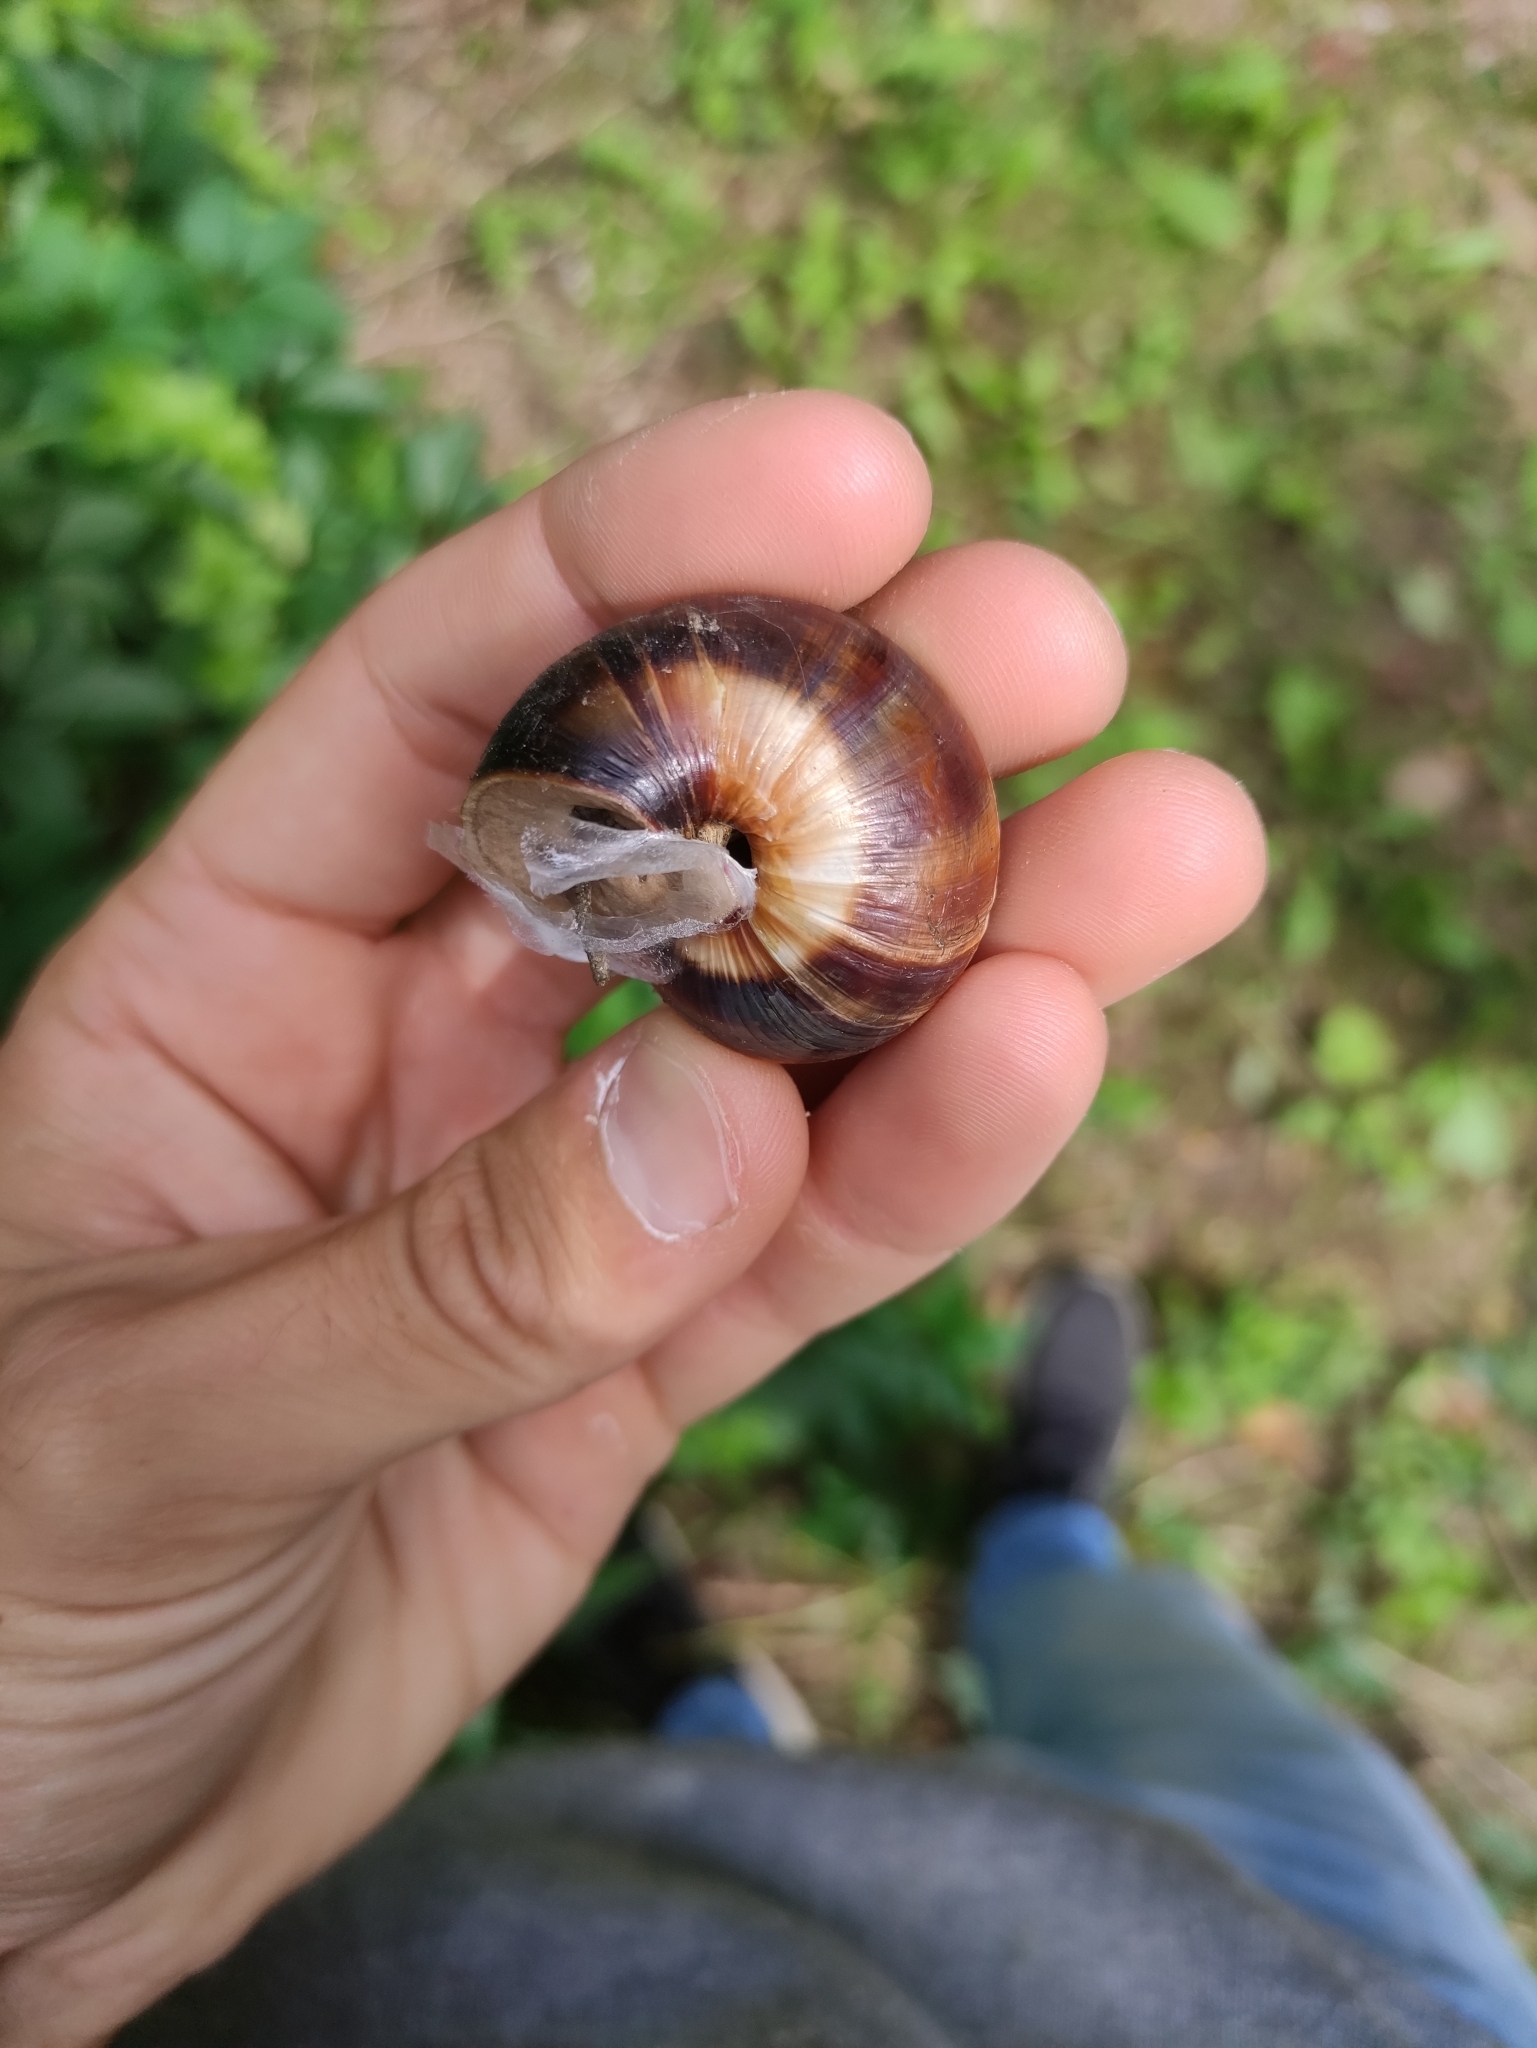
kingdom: Animalia
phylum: Mollusca
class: Gastropoda
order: Stylommatophora
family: Helicidae
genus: Helix
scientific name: Helix lucorum
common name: Turkish snail
